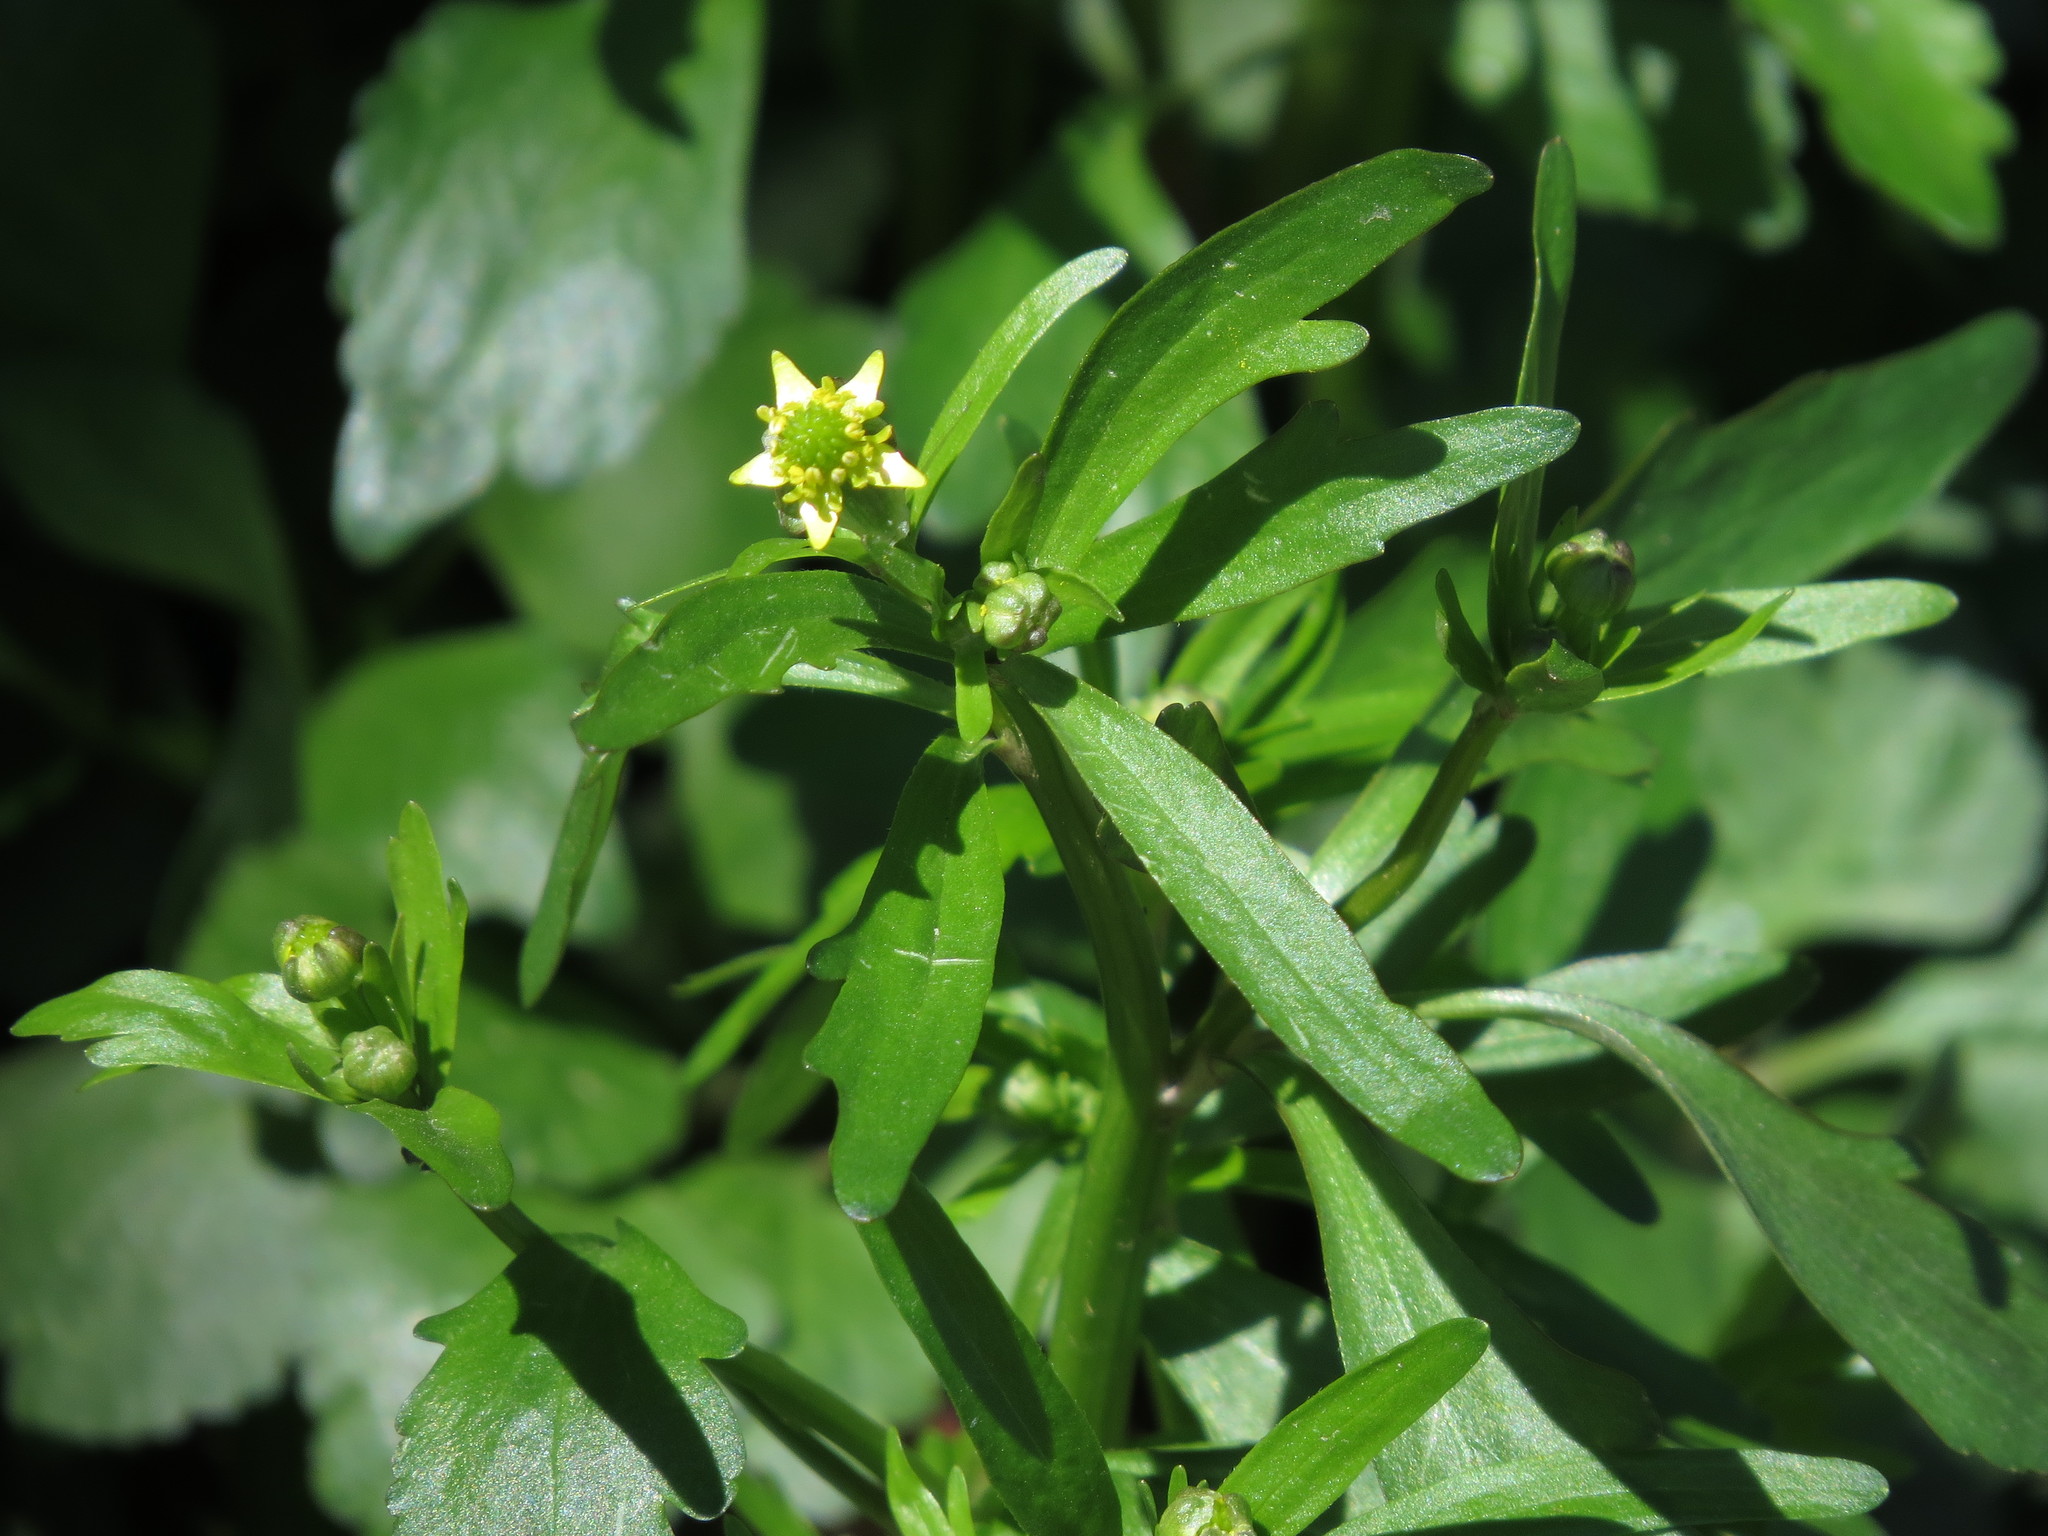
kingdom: Plantae
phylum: Tracheophyta
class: Magnoliopsida
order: Ranunculales
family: Ranunculaceae
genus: Ranunculus
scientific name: Ranunculus abortivus
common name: Early wood buttercup
